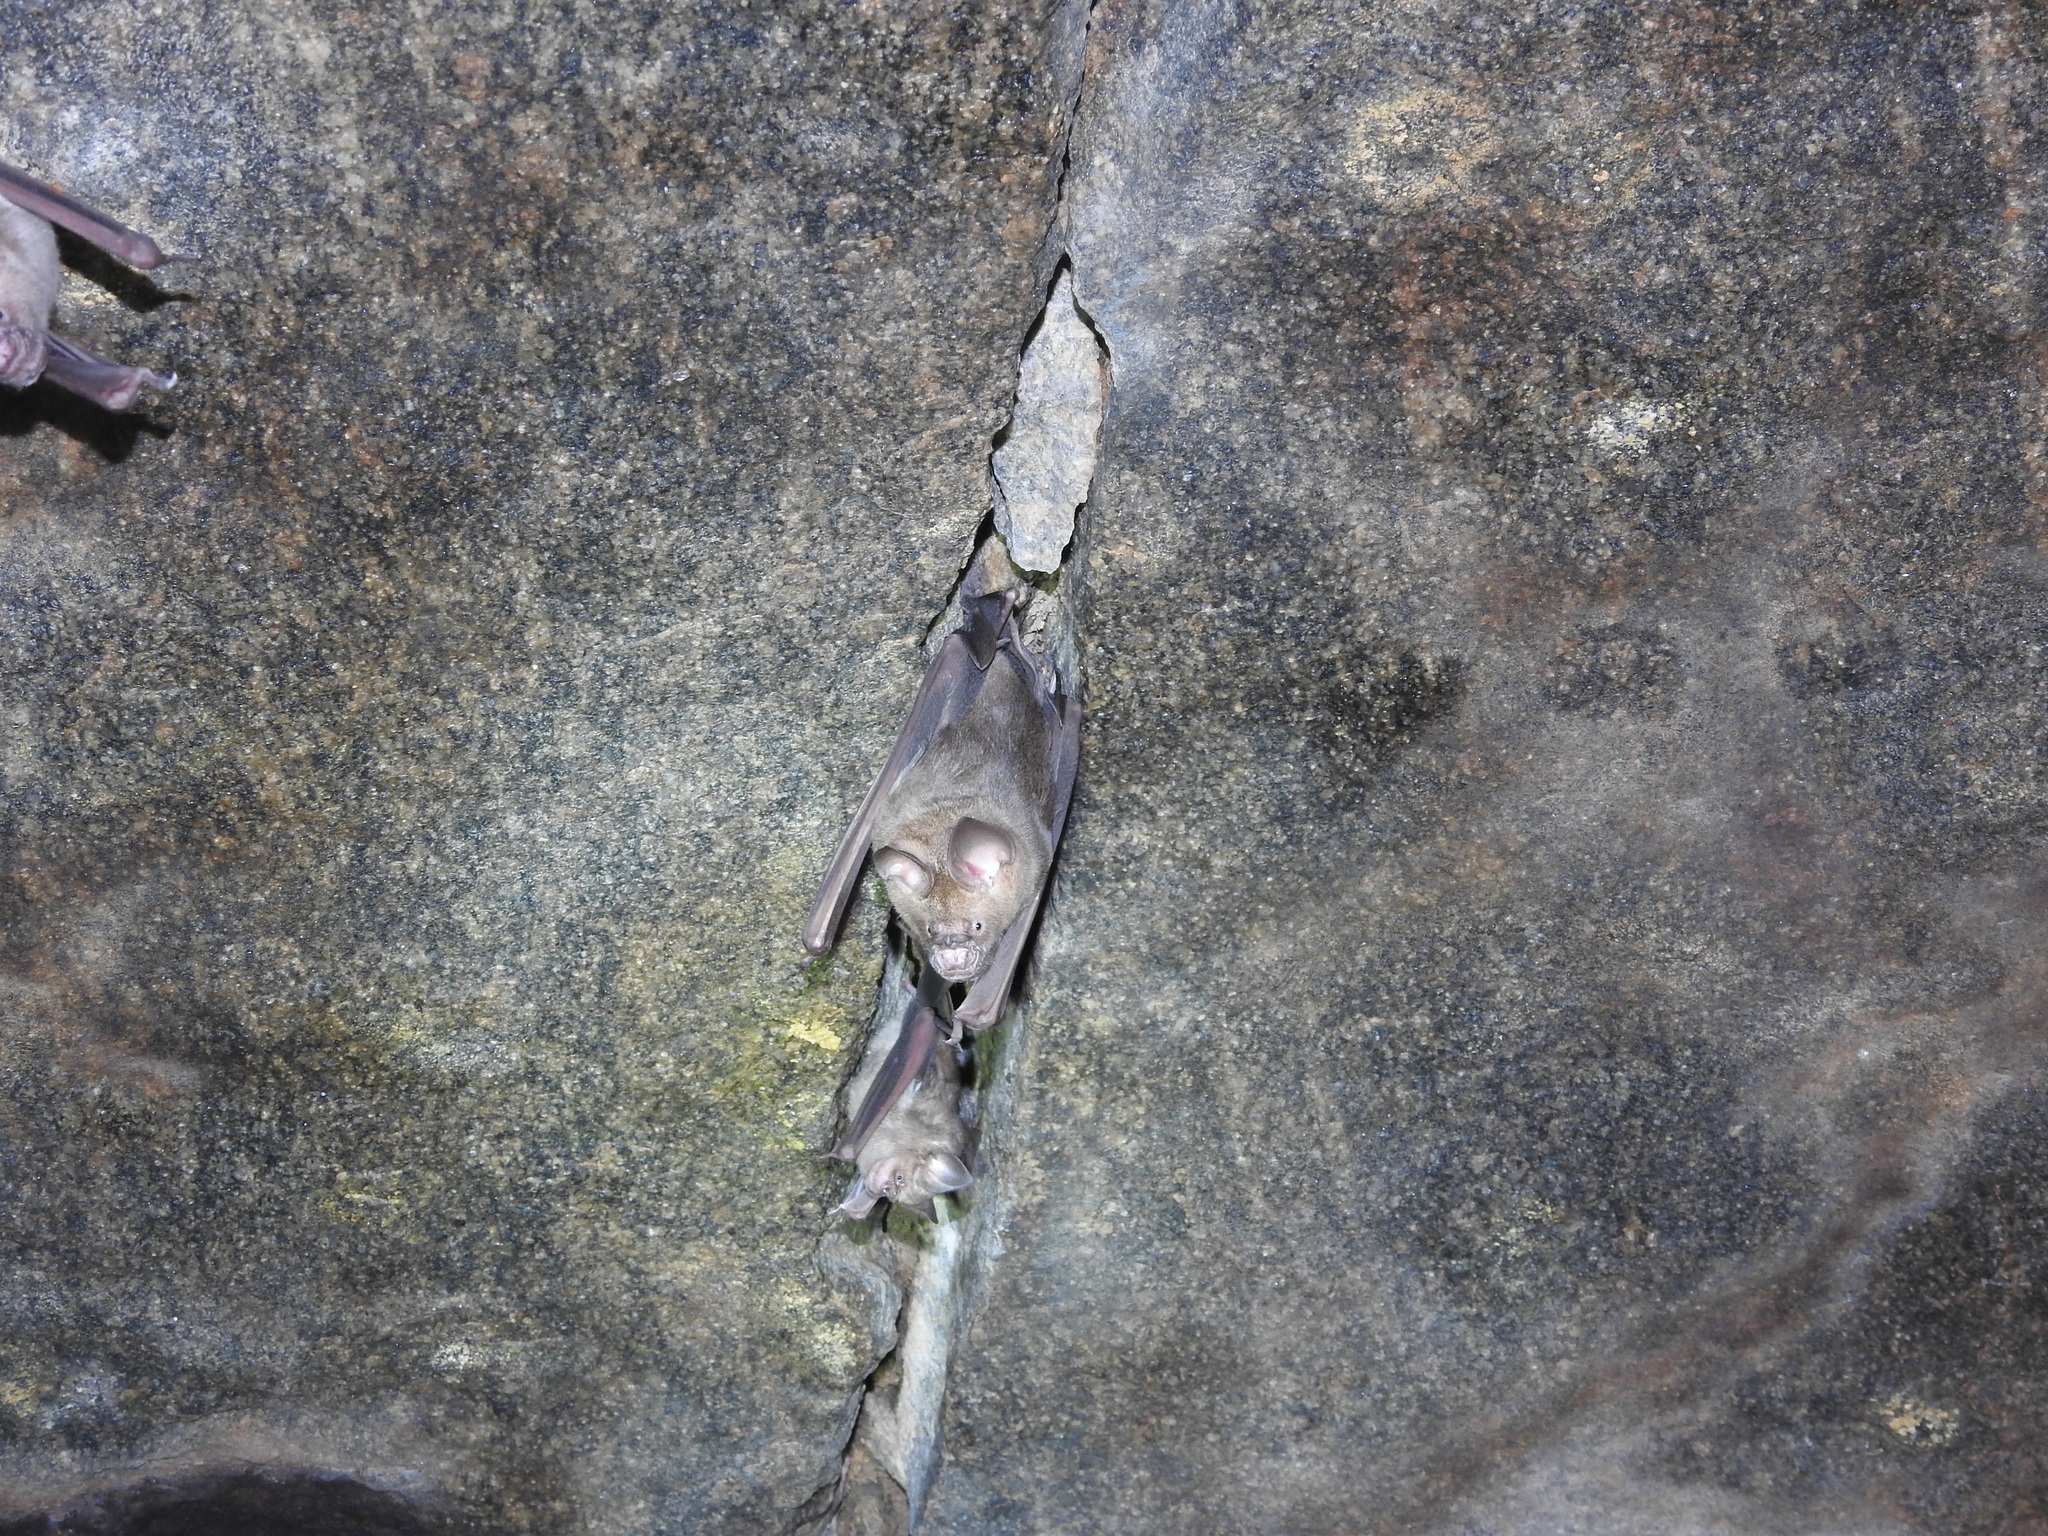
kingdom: Animalia
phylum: Chordata
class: Mammalia
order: Chiroptera
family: Hipposideridae
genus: Hipposideros
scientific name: Hipposideros speoris
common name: Schneider's roundleaf bat
